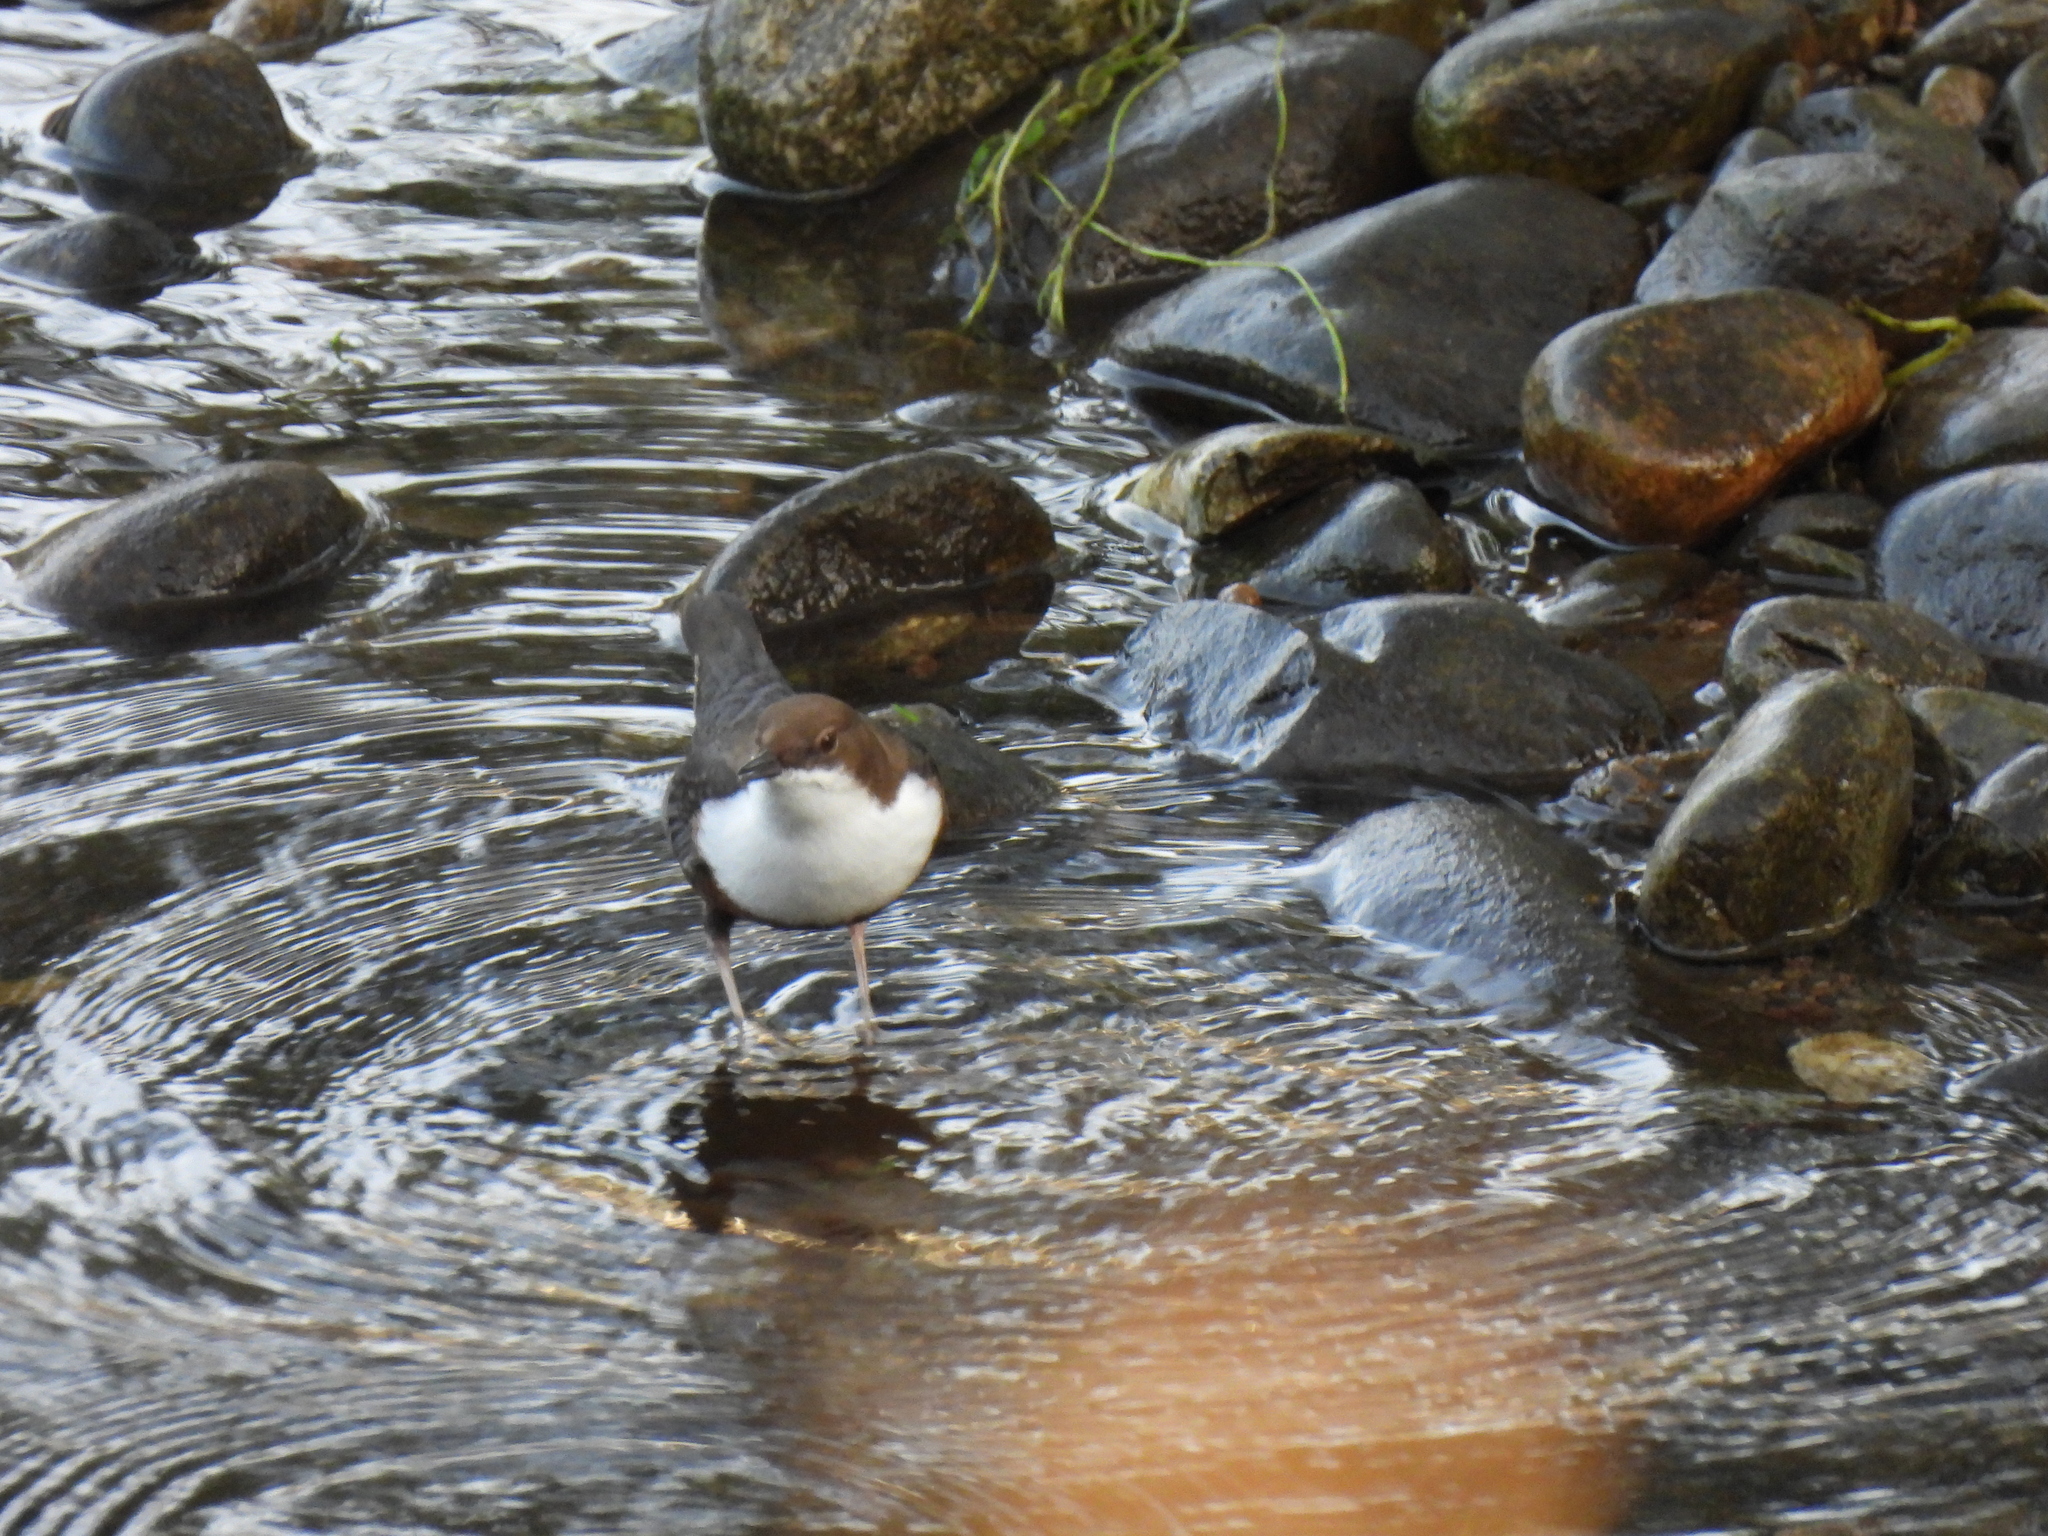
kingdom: Animalia
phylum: Chordata
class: Aves
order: Passeriformes
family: Cinclidae
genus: Cinclus
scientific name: Cinclus cinclus
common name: White-throated dipper
